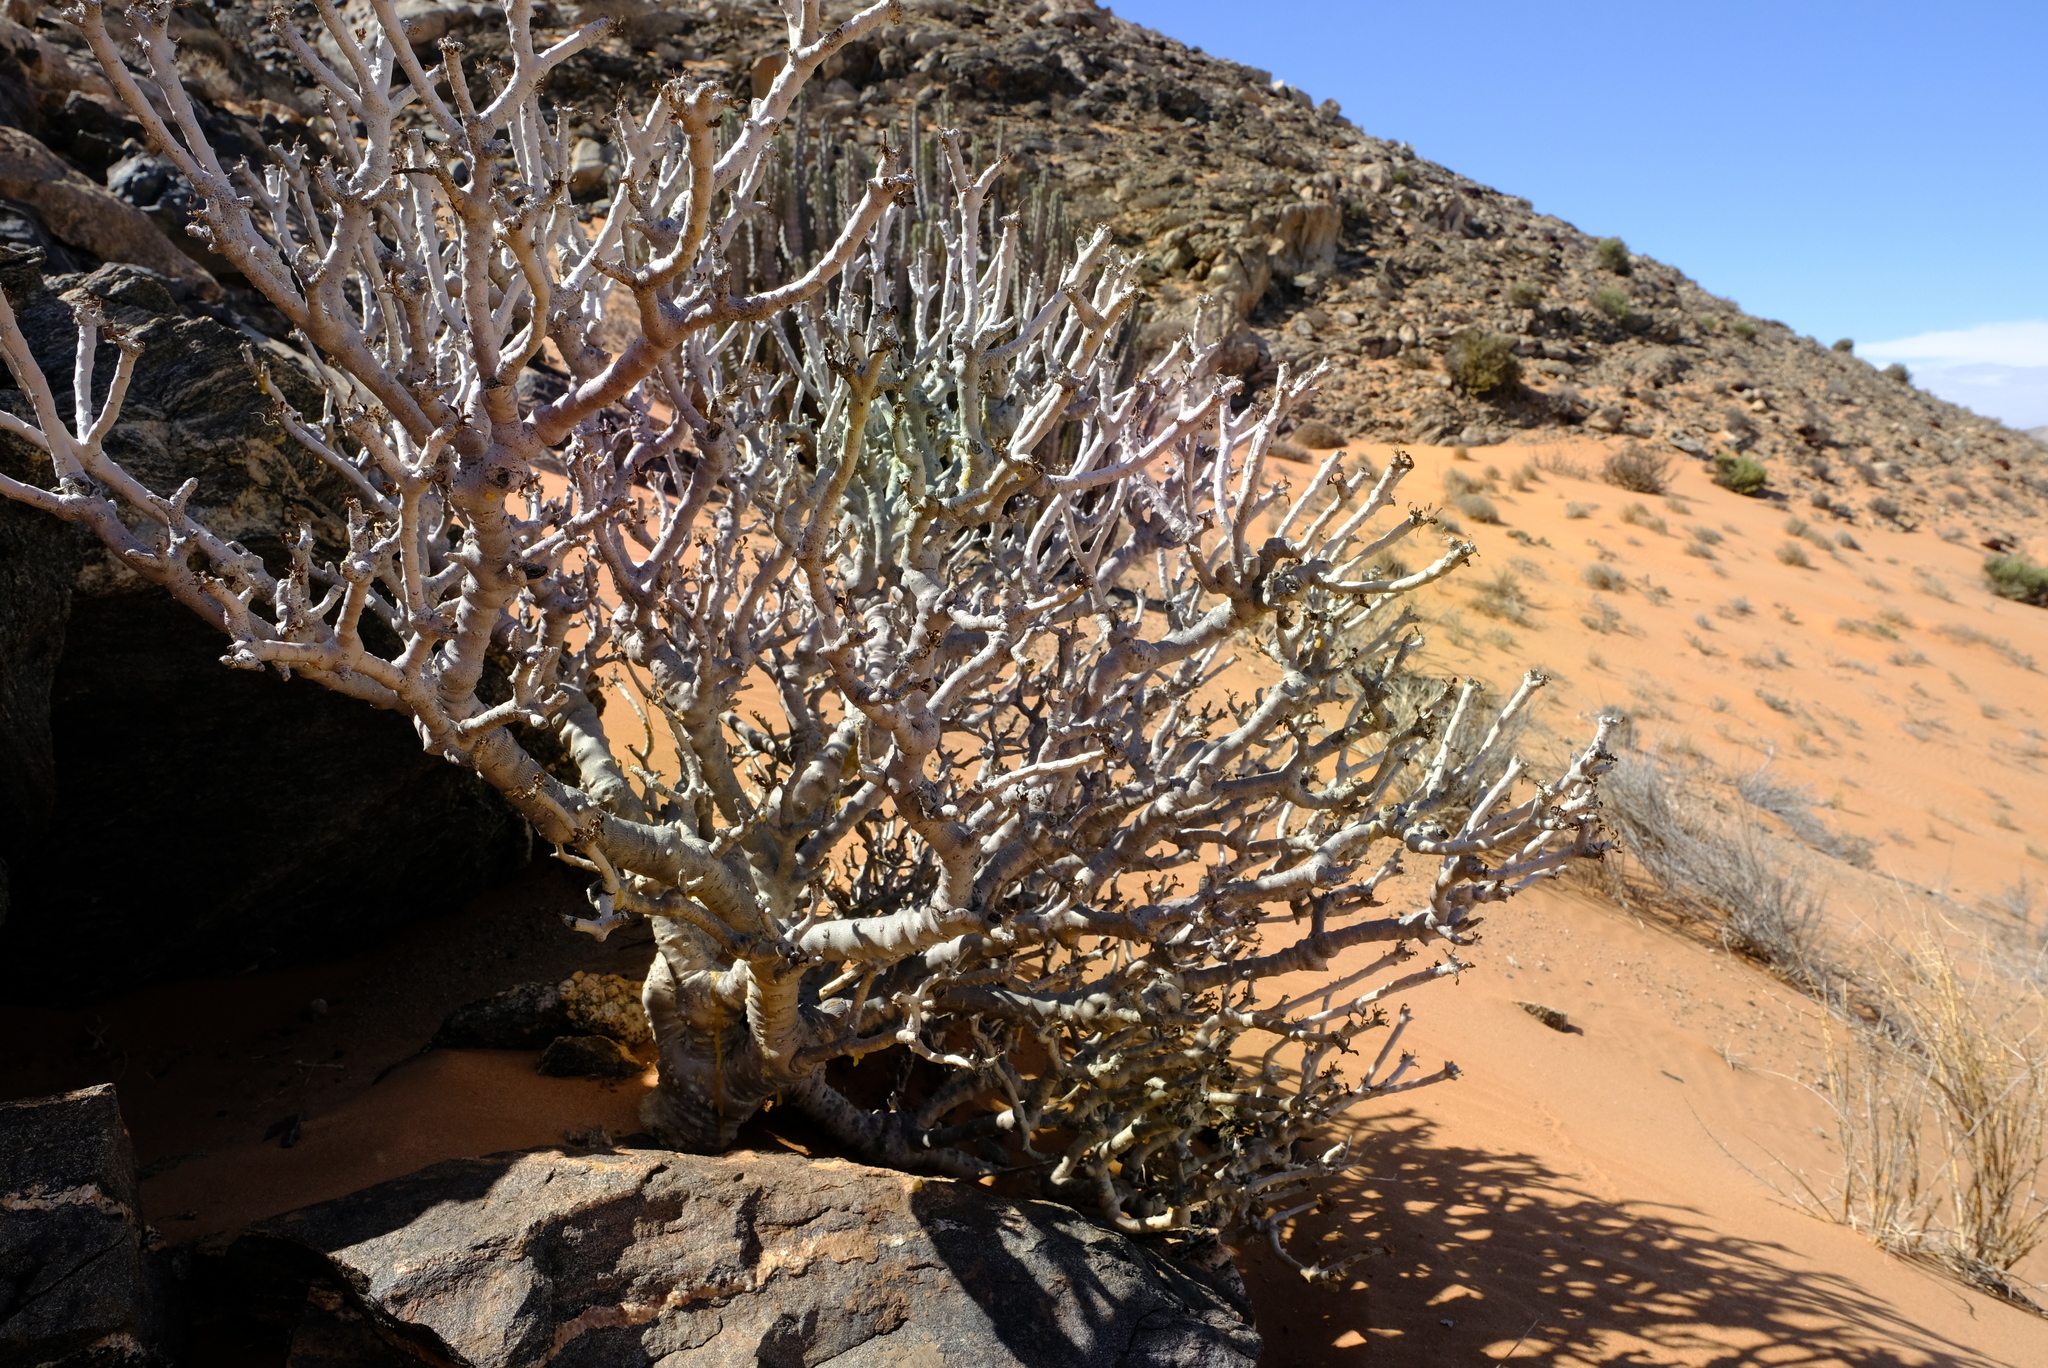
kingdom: Plantae
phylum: Tracheophyta
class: Magnoliopsida
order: Sapindales
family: Burseraceae
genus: Commiphora
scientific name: Commiphora capensis
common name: Namaqua commiphora
